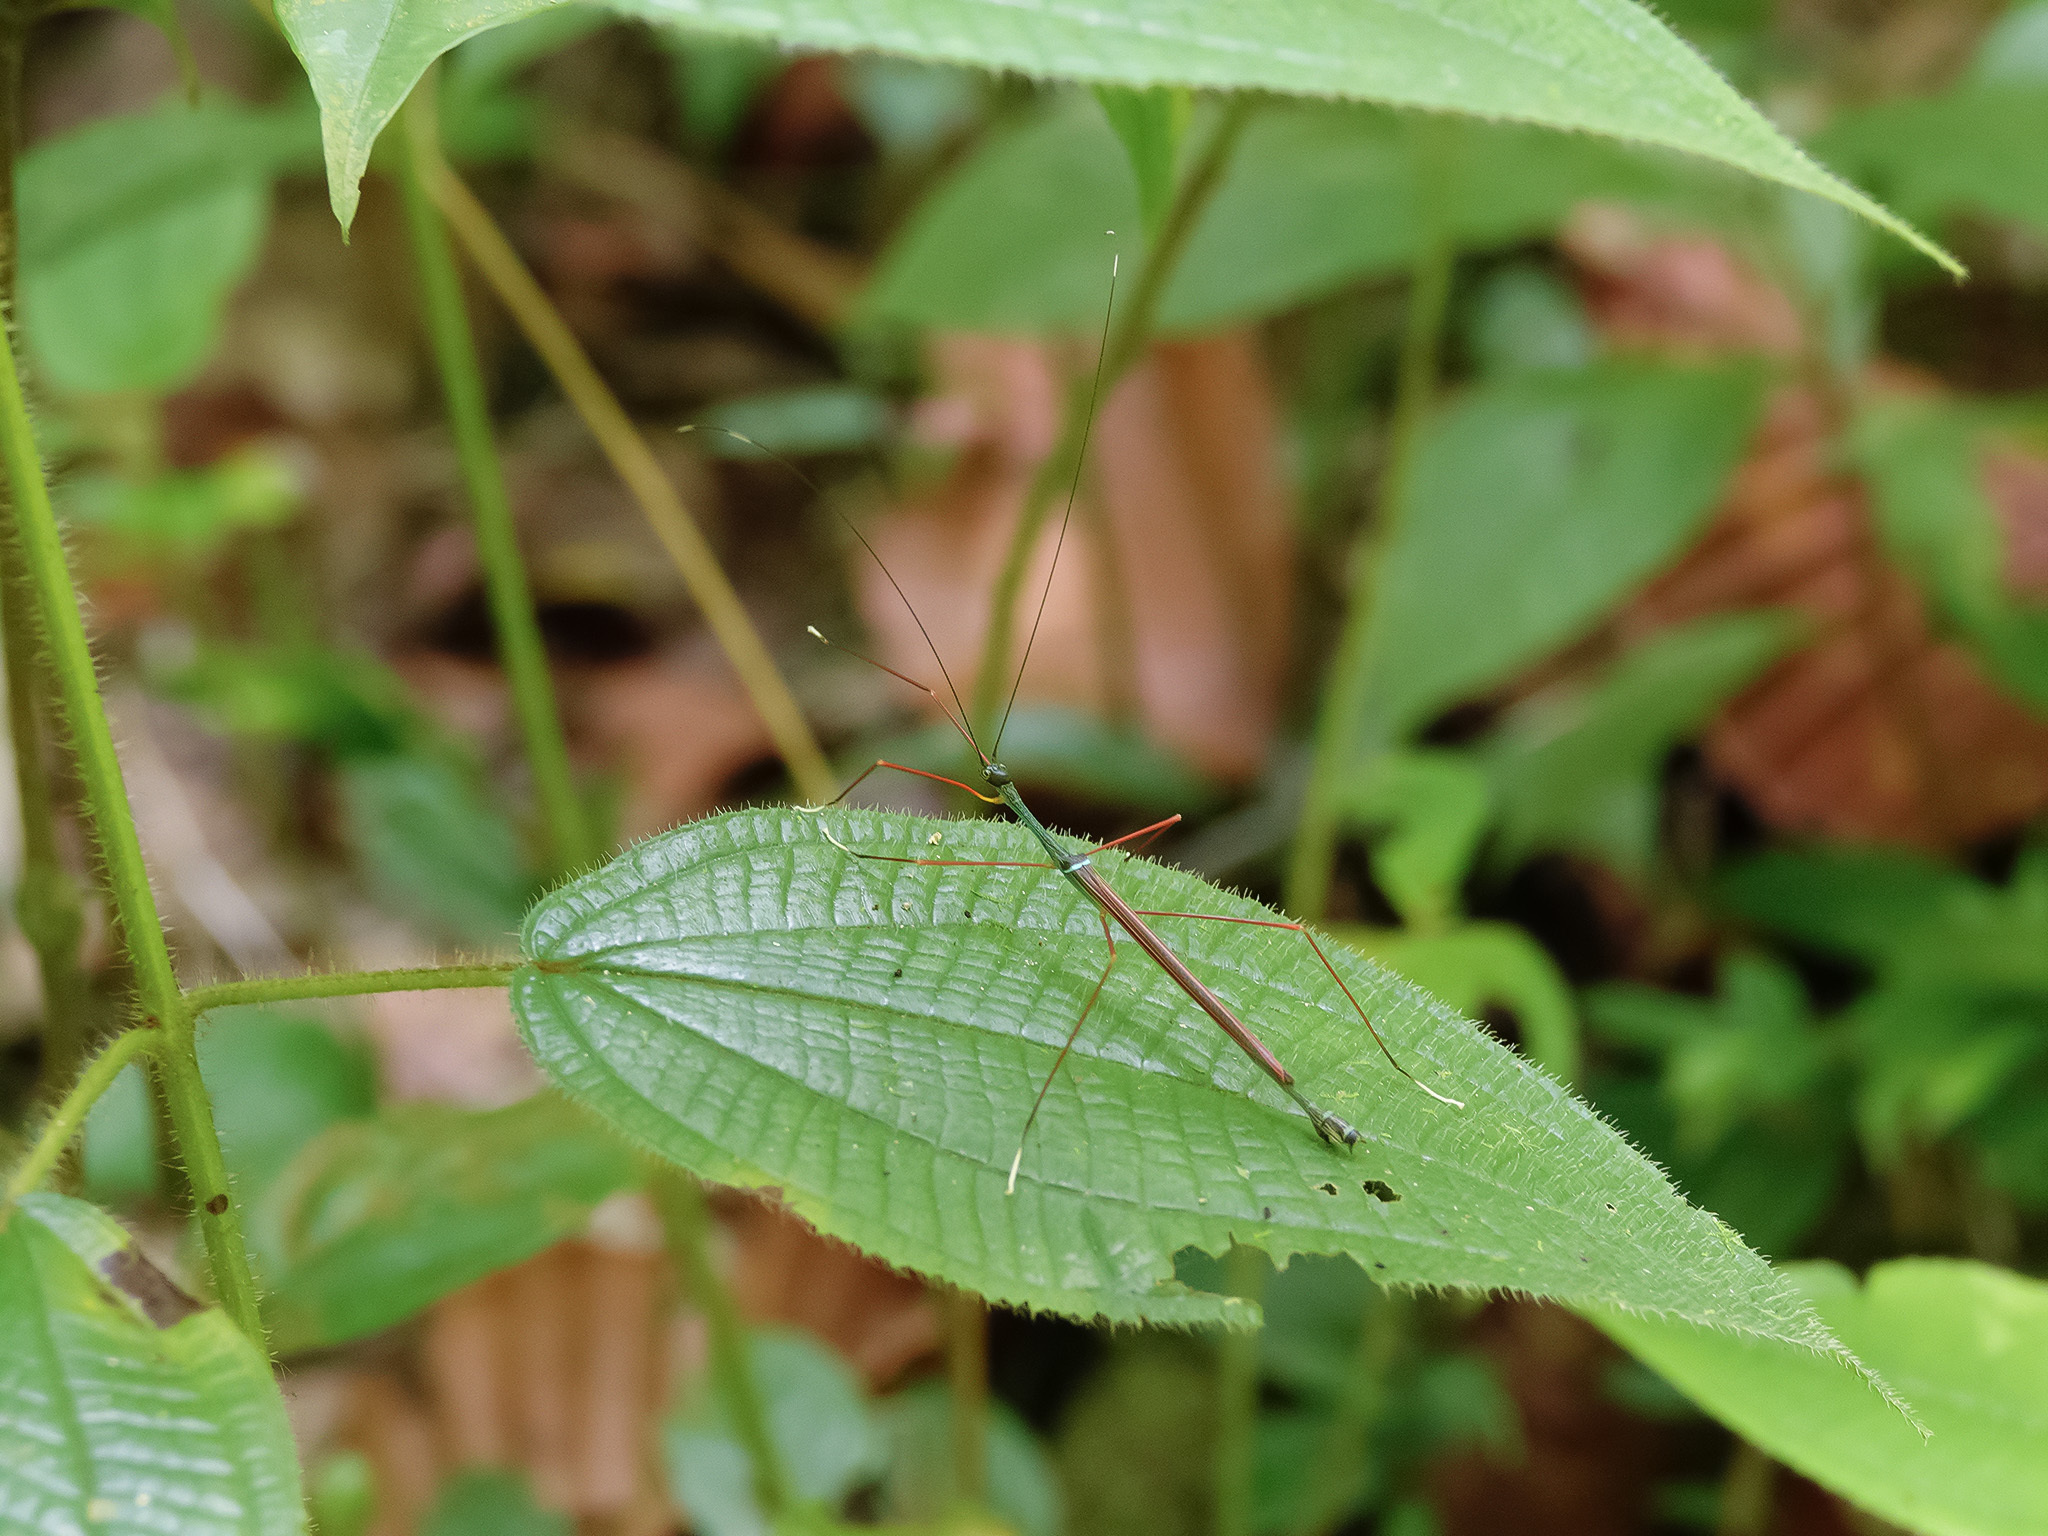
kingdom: Animalia
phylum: Arthropoda
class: Insecta
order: Phasmida
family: Lonchodidae
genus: Paramarmessoidea
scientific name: Paramarmessoidea annulata
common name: Yellow and brown flying stick
